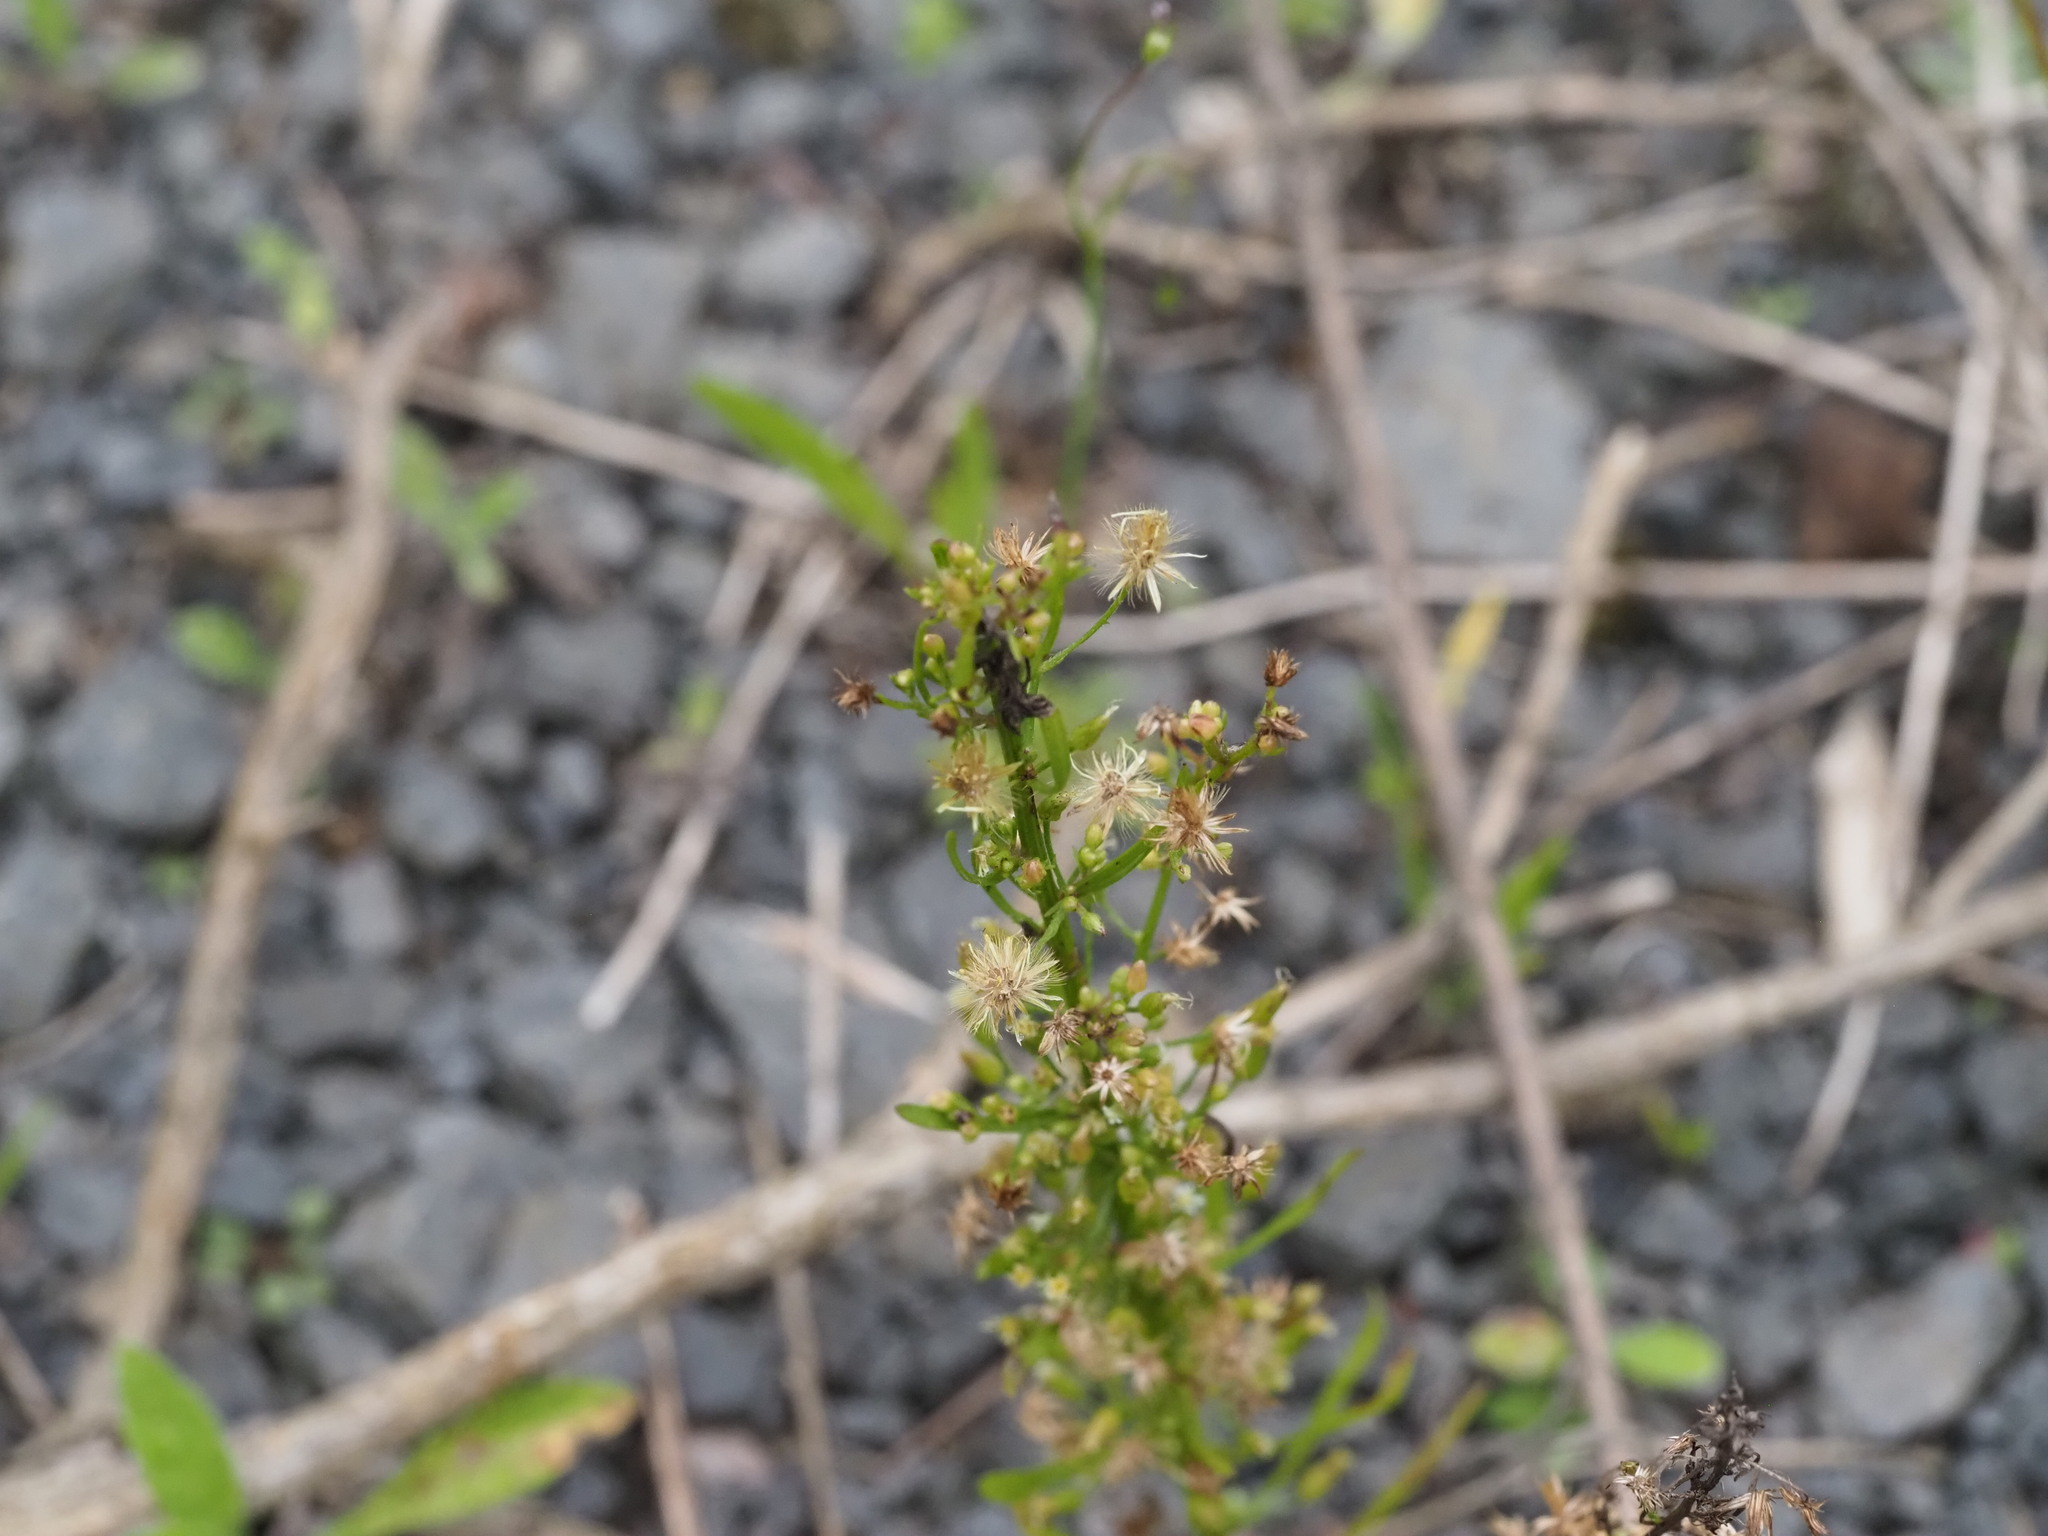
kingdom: Plantae
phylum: Tracheophyta
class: Magnoliopsida
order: Asterales
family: Asteraceae
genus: Erigeron
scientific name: Erigeron canadensis
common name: Canadian fleabane
